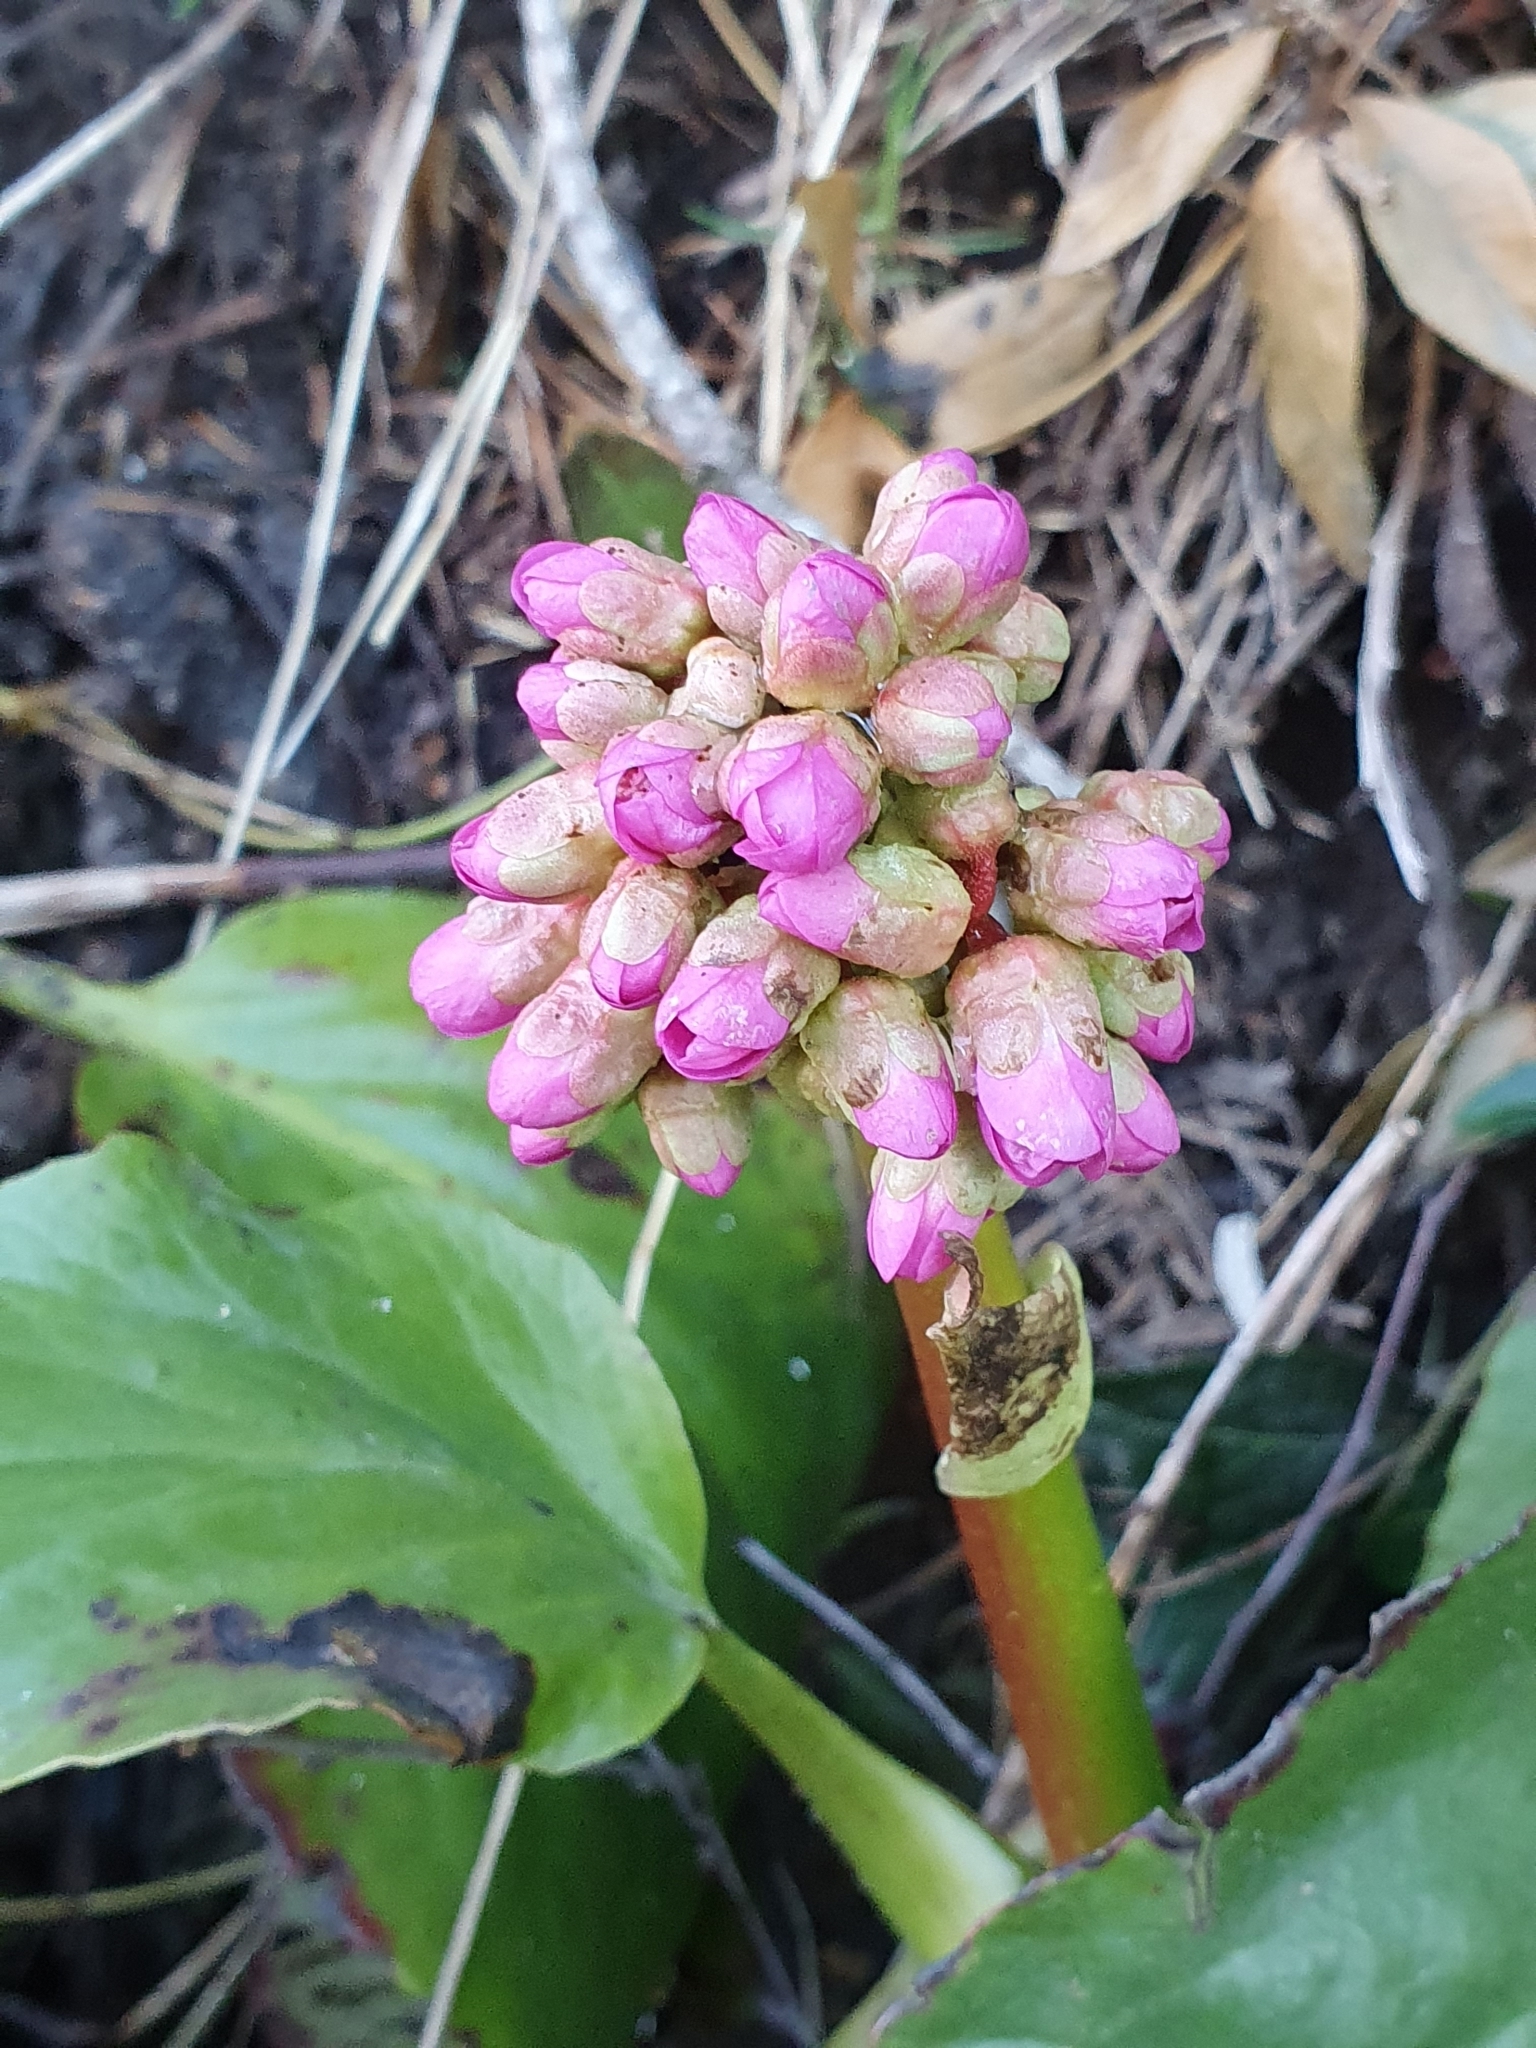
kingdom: Plantae
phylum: Tracheophyta
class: Magnoliopsida
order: Saxifragales
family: Saxifragaceae
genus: Bergenia
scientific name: Bergenia crassifolia
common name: Elephant-ears
